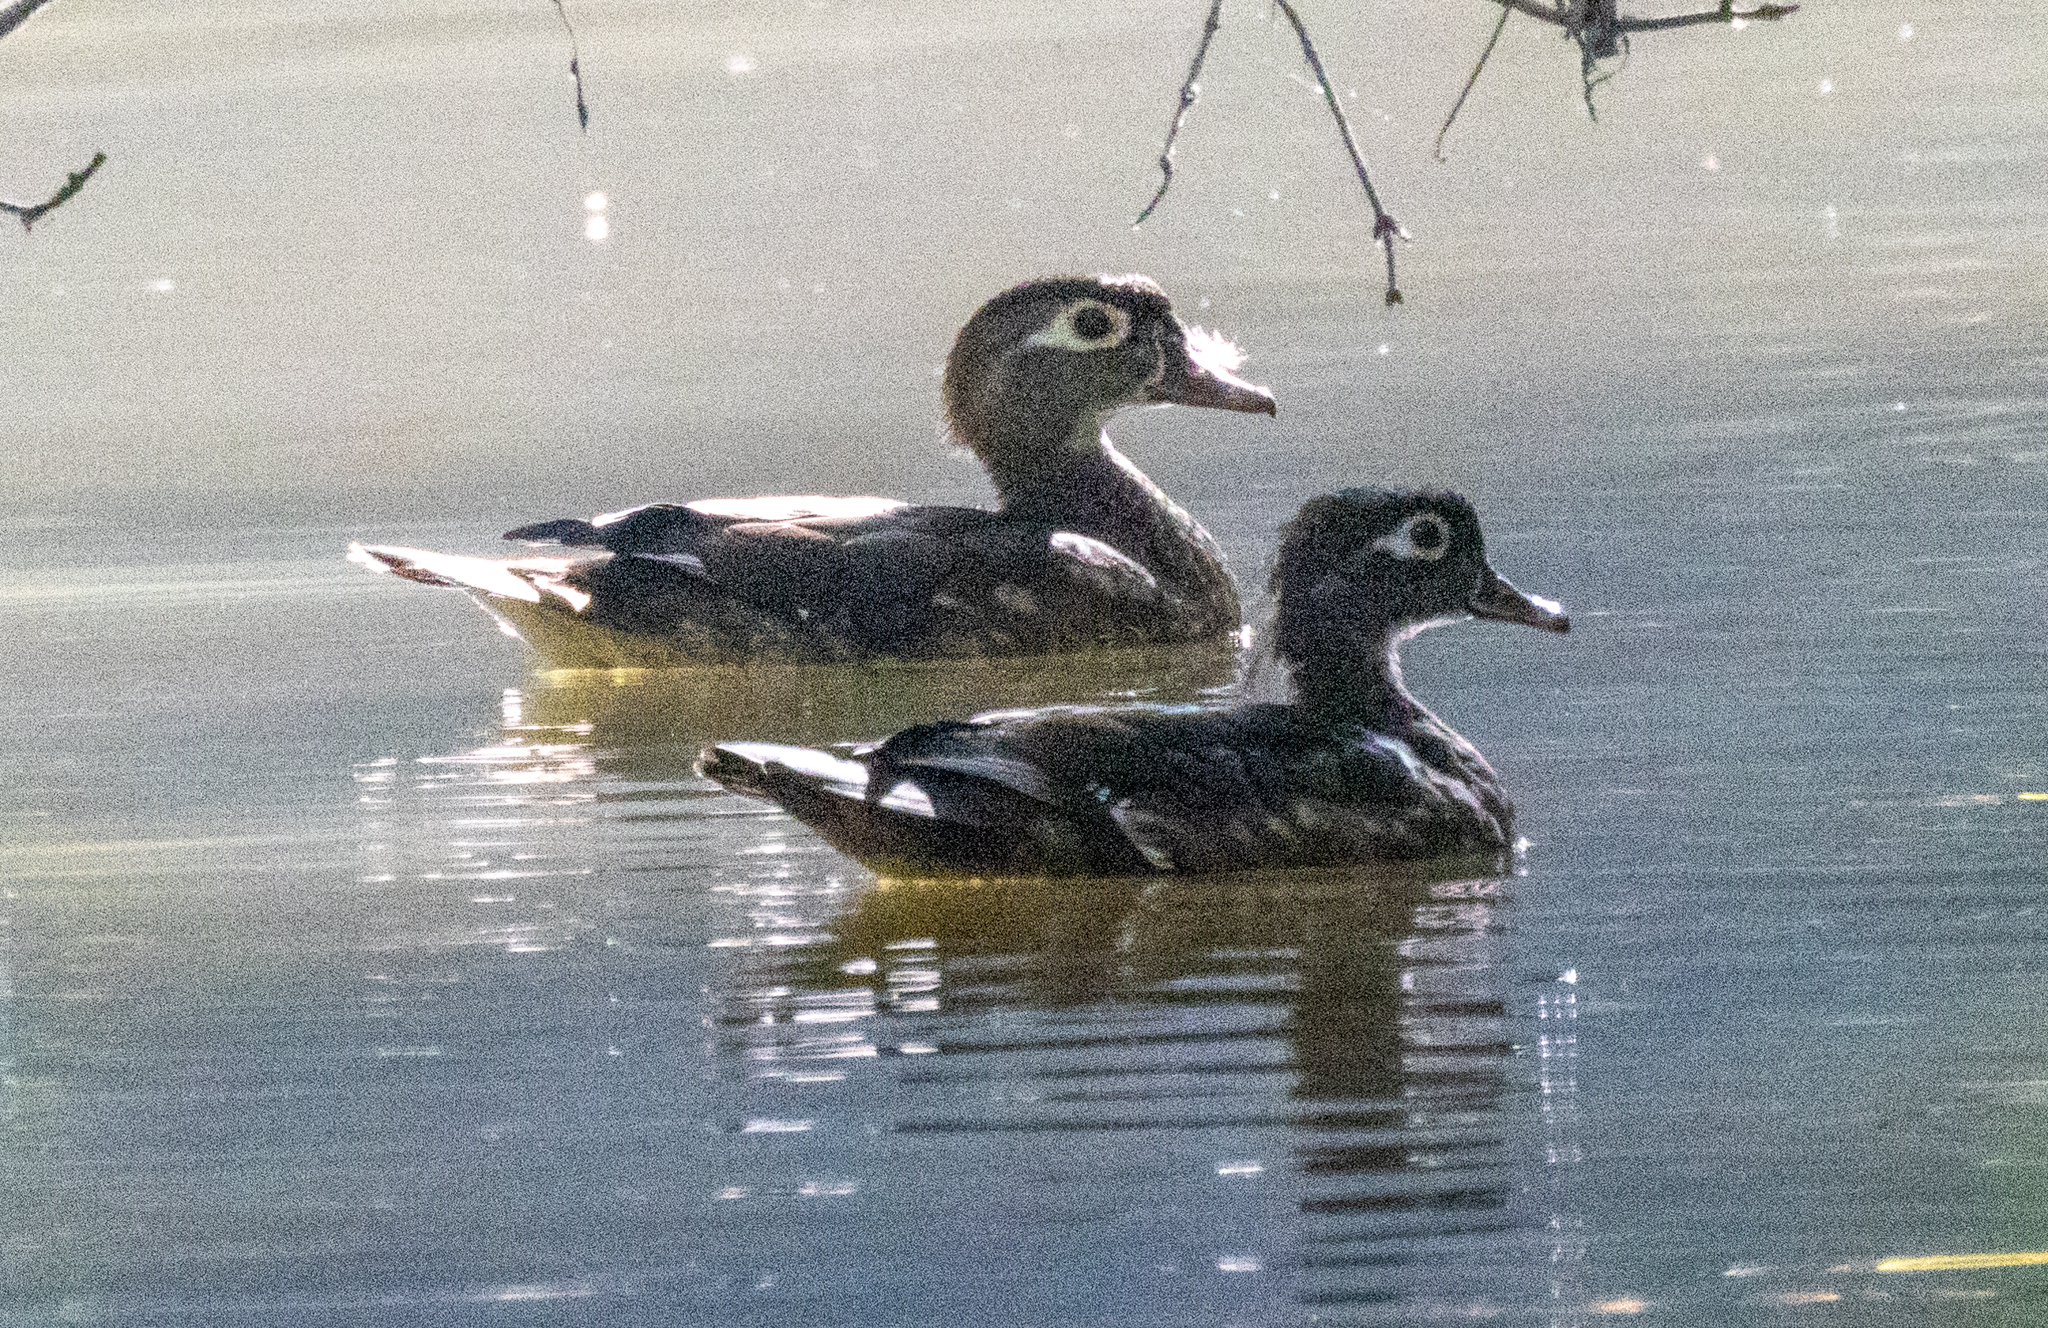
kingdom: Animalia
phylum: Chordata
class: Aves
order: Anseriformes
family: Anatidae
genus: Aix
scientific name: Aix sponsa
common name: Wood duck
